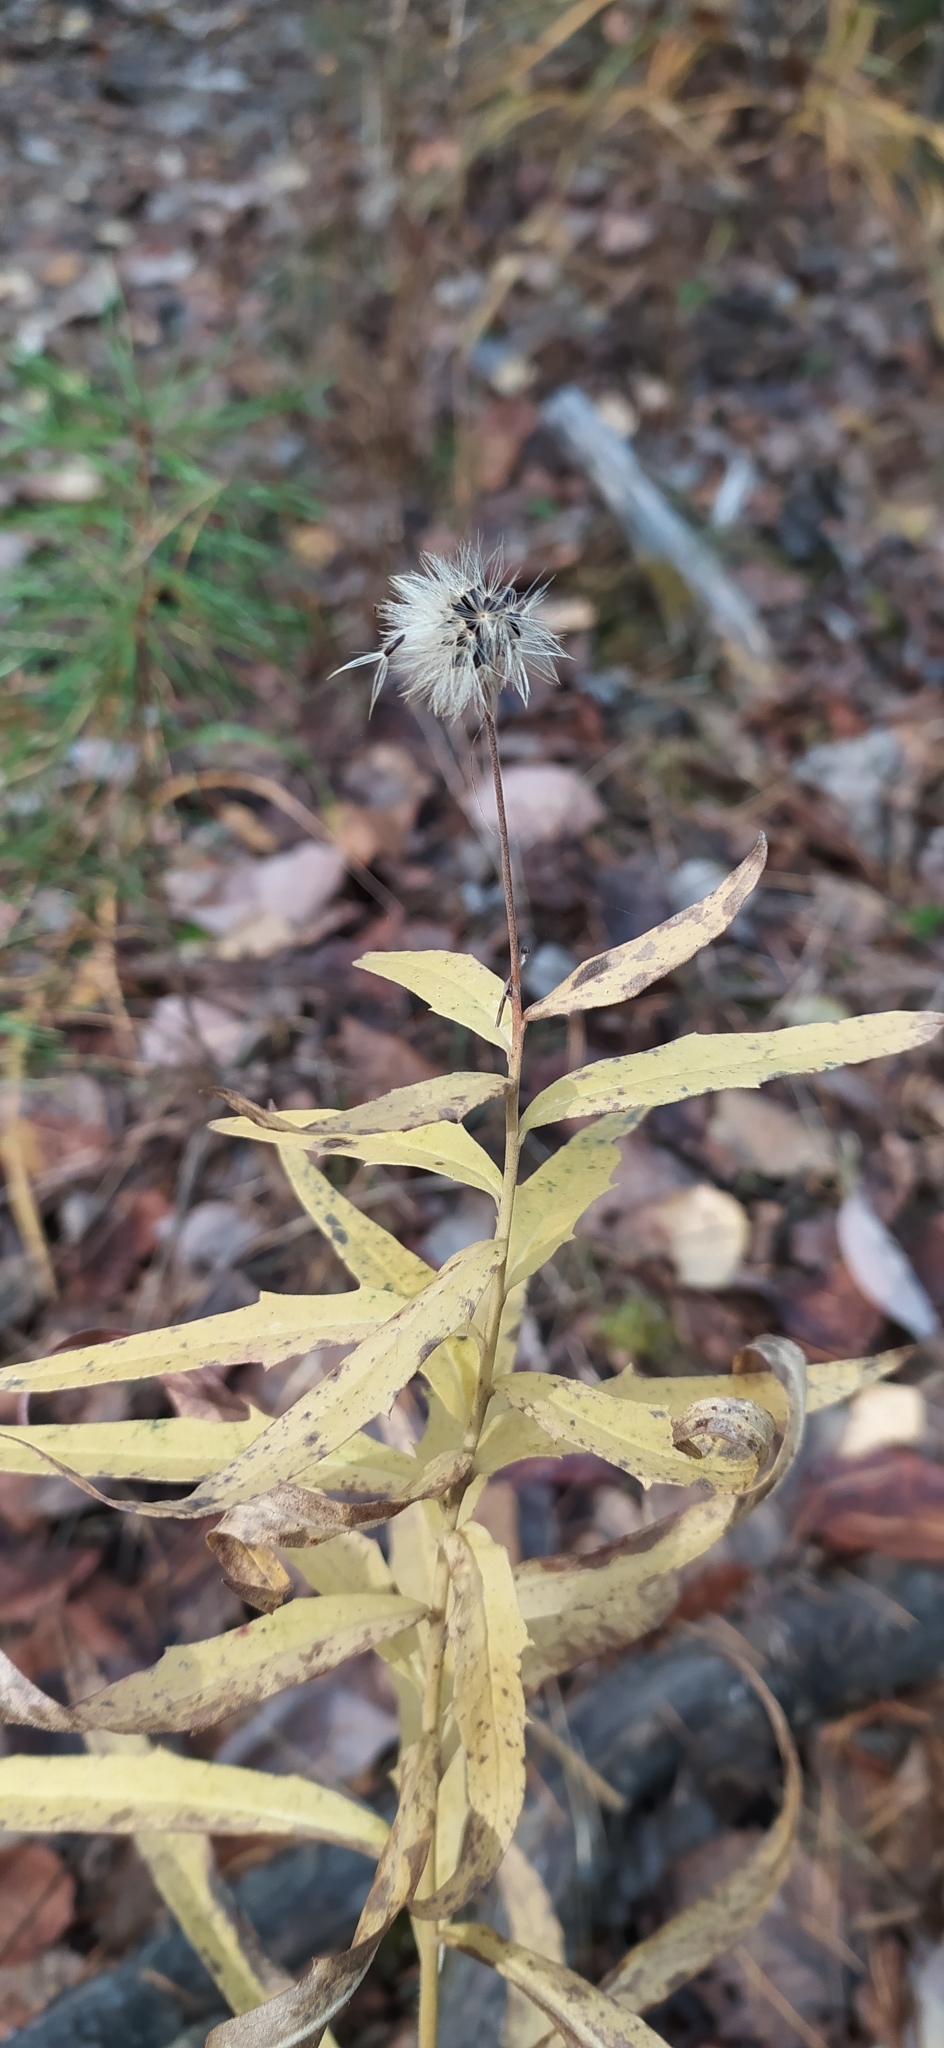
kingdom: Plantae
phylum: Tracheophyta
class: Magnoliopsida
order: Asterales
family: Asteraceae
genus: Hieracium
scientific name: Hieracium umbellatum
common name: Northern hawkweed
